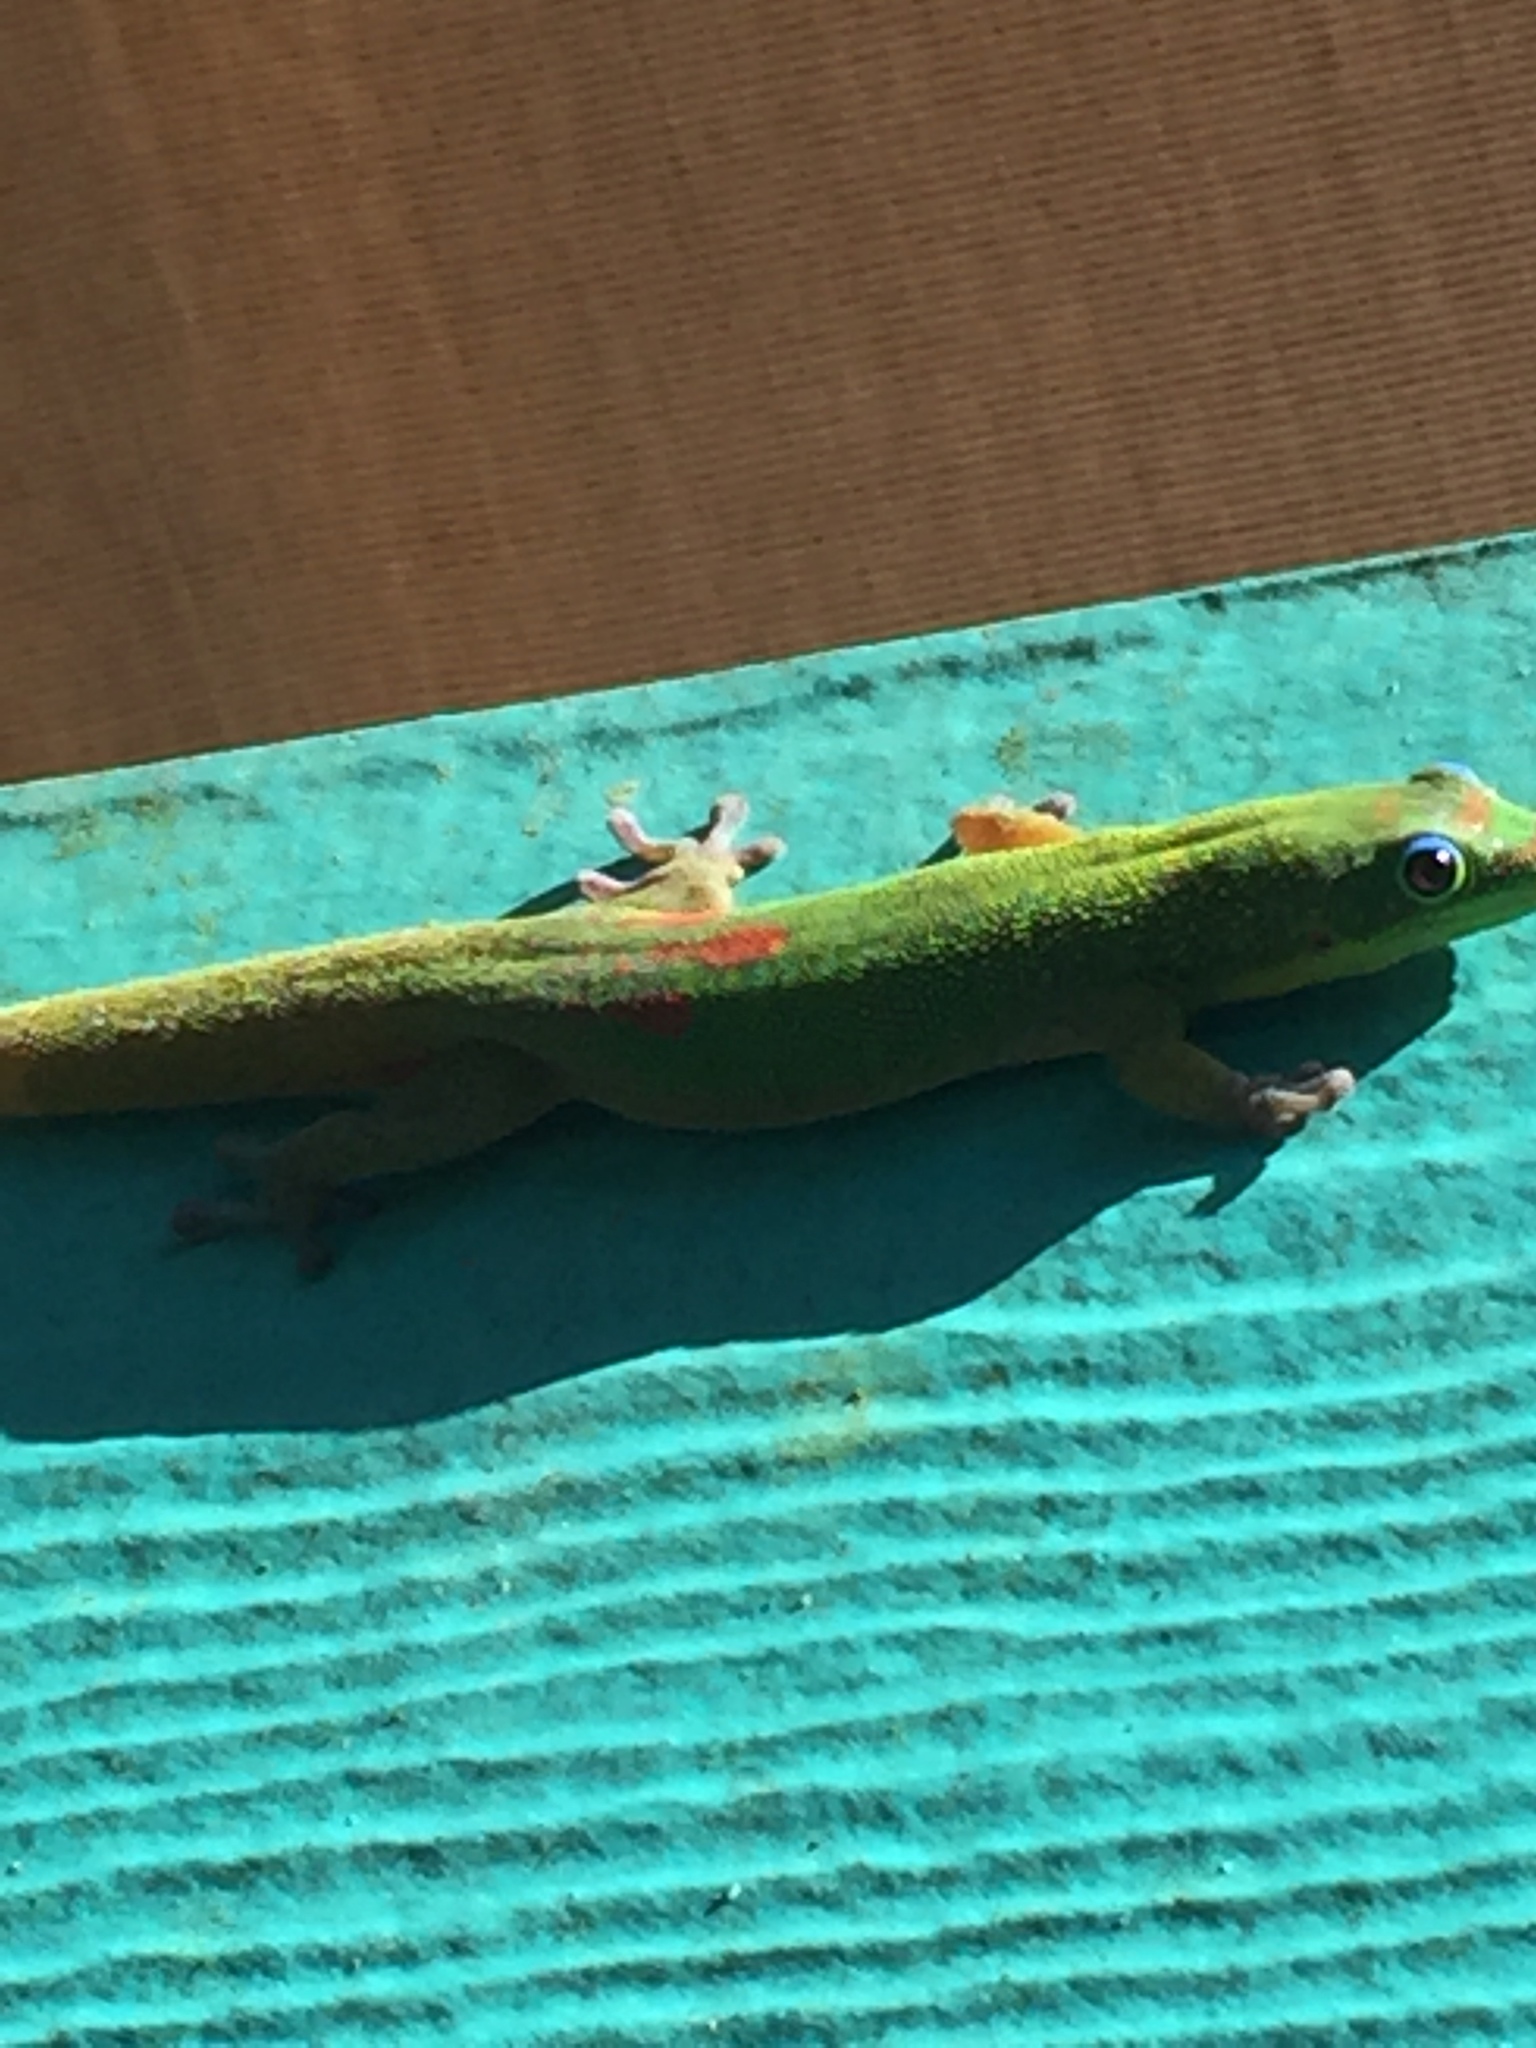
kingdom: Animalia
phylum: Chordata
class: Squamata
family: Gekkonidae
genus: Phelsuma
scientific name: Phelsuma laticauda
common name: Gold dust day gecko
